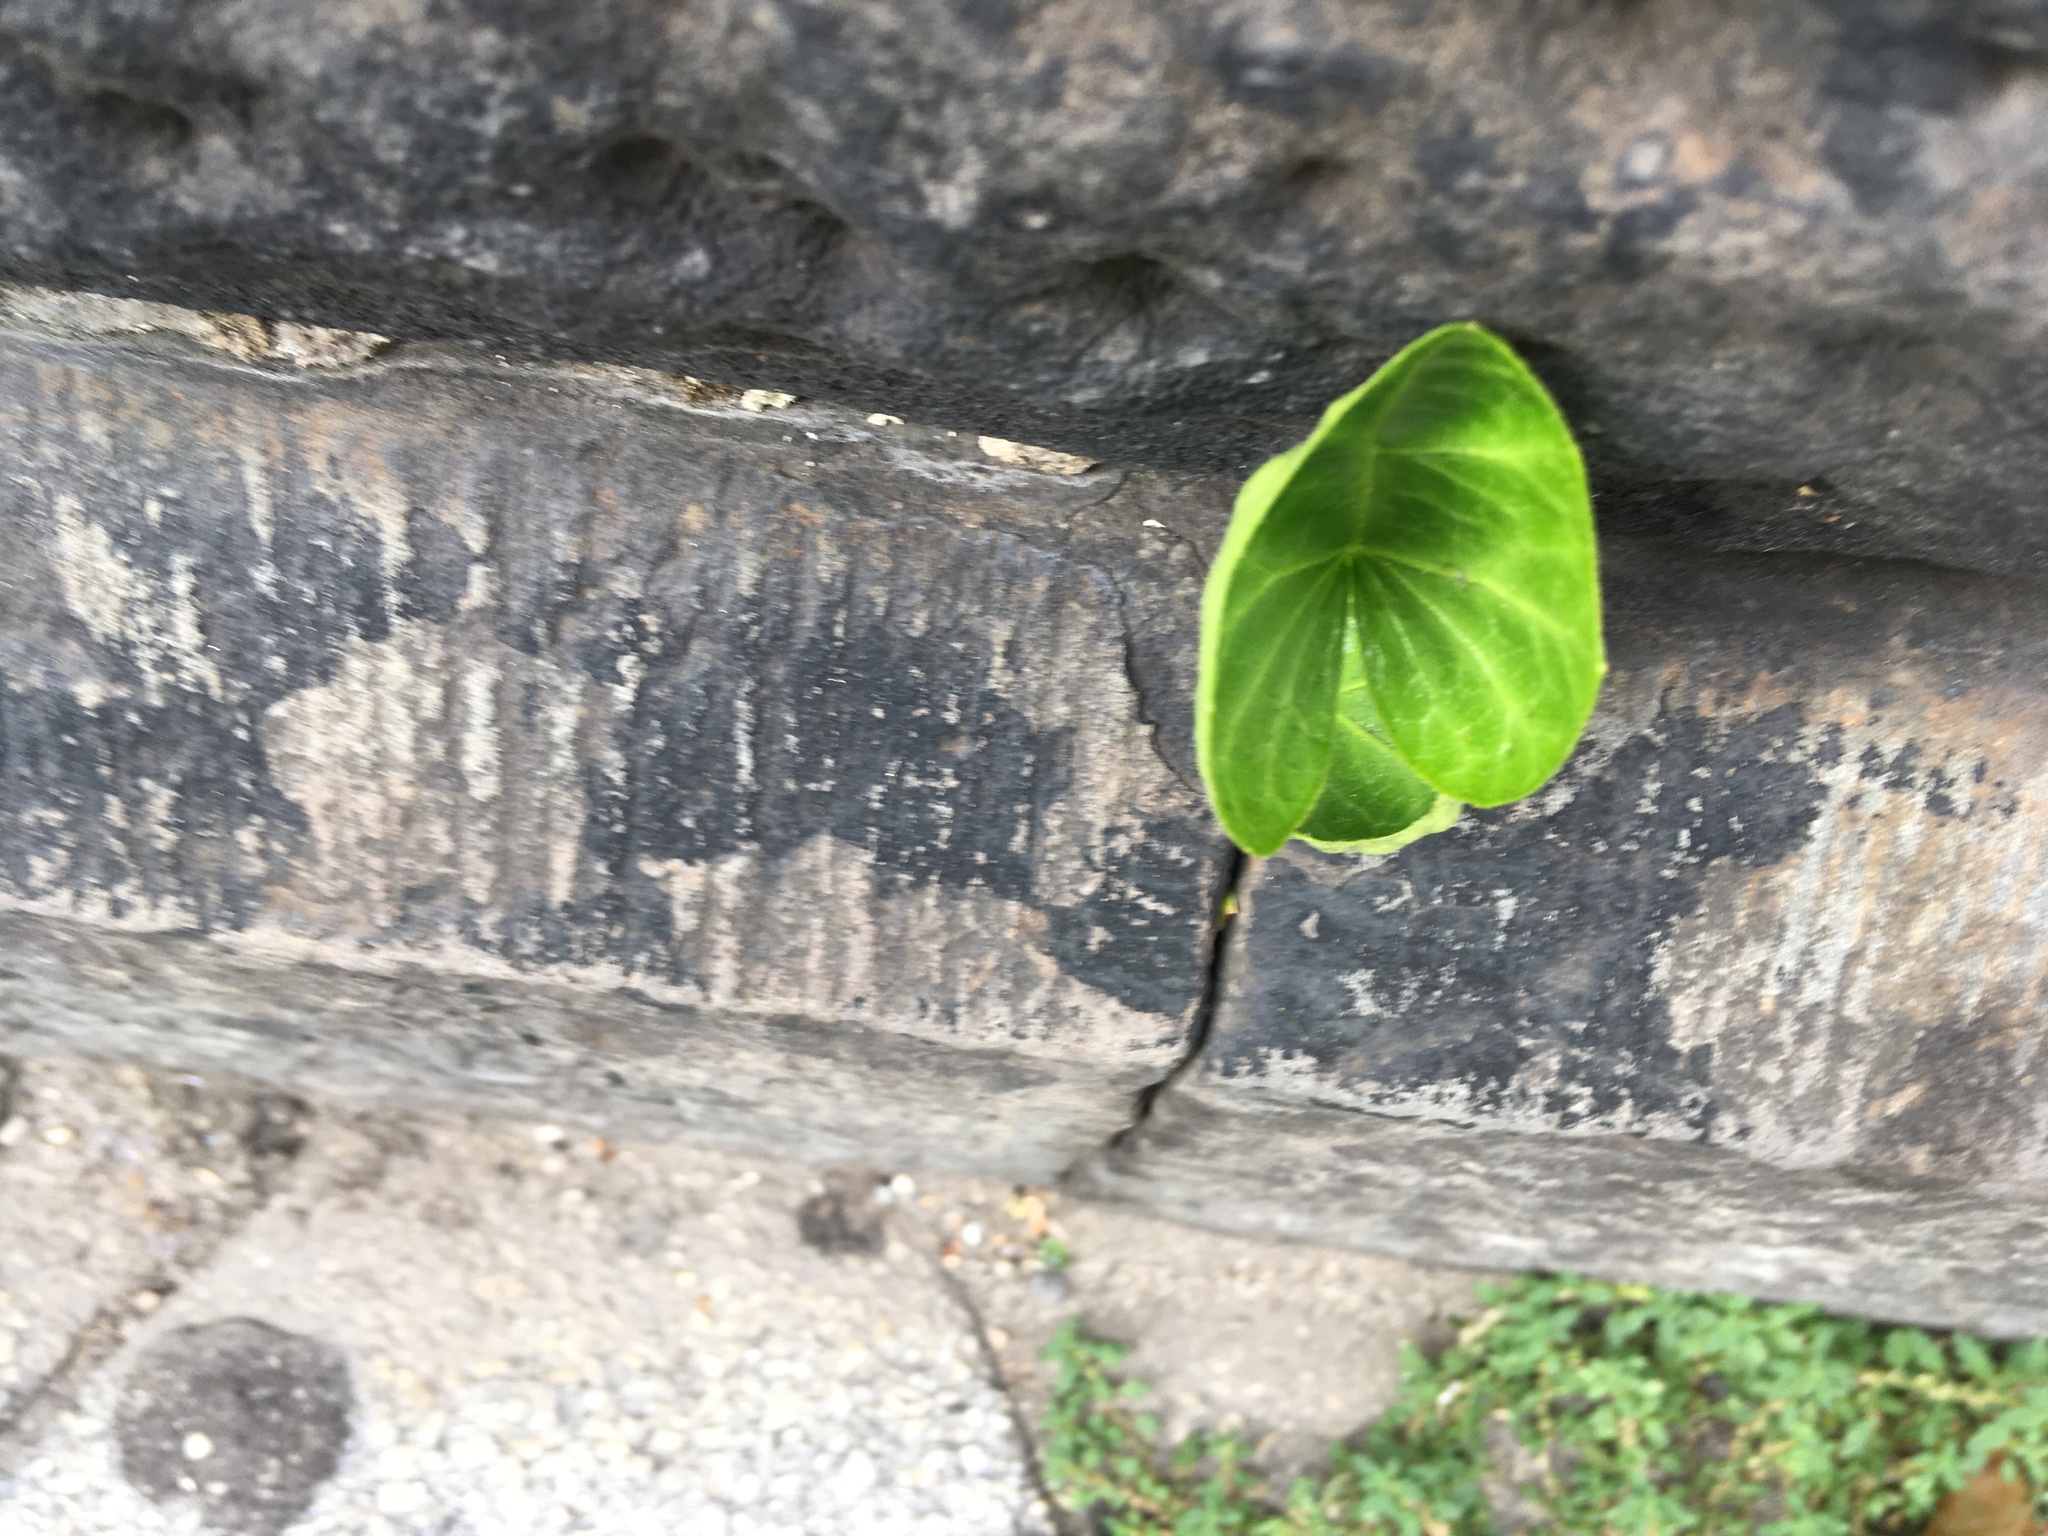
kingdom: Plantae
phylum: Tracheophyta
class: Magnoliopsida
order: Malpighiales
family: Violaceae
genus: Viola
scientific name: Viola sororia
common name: Dooryard violet
